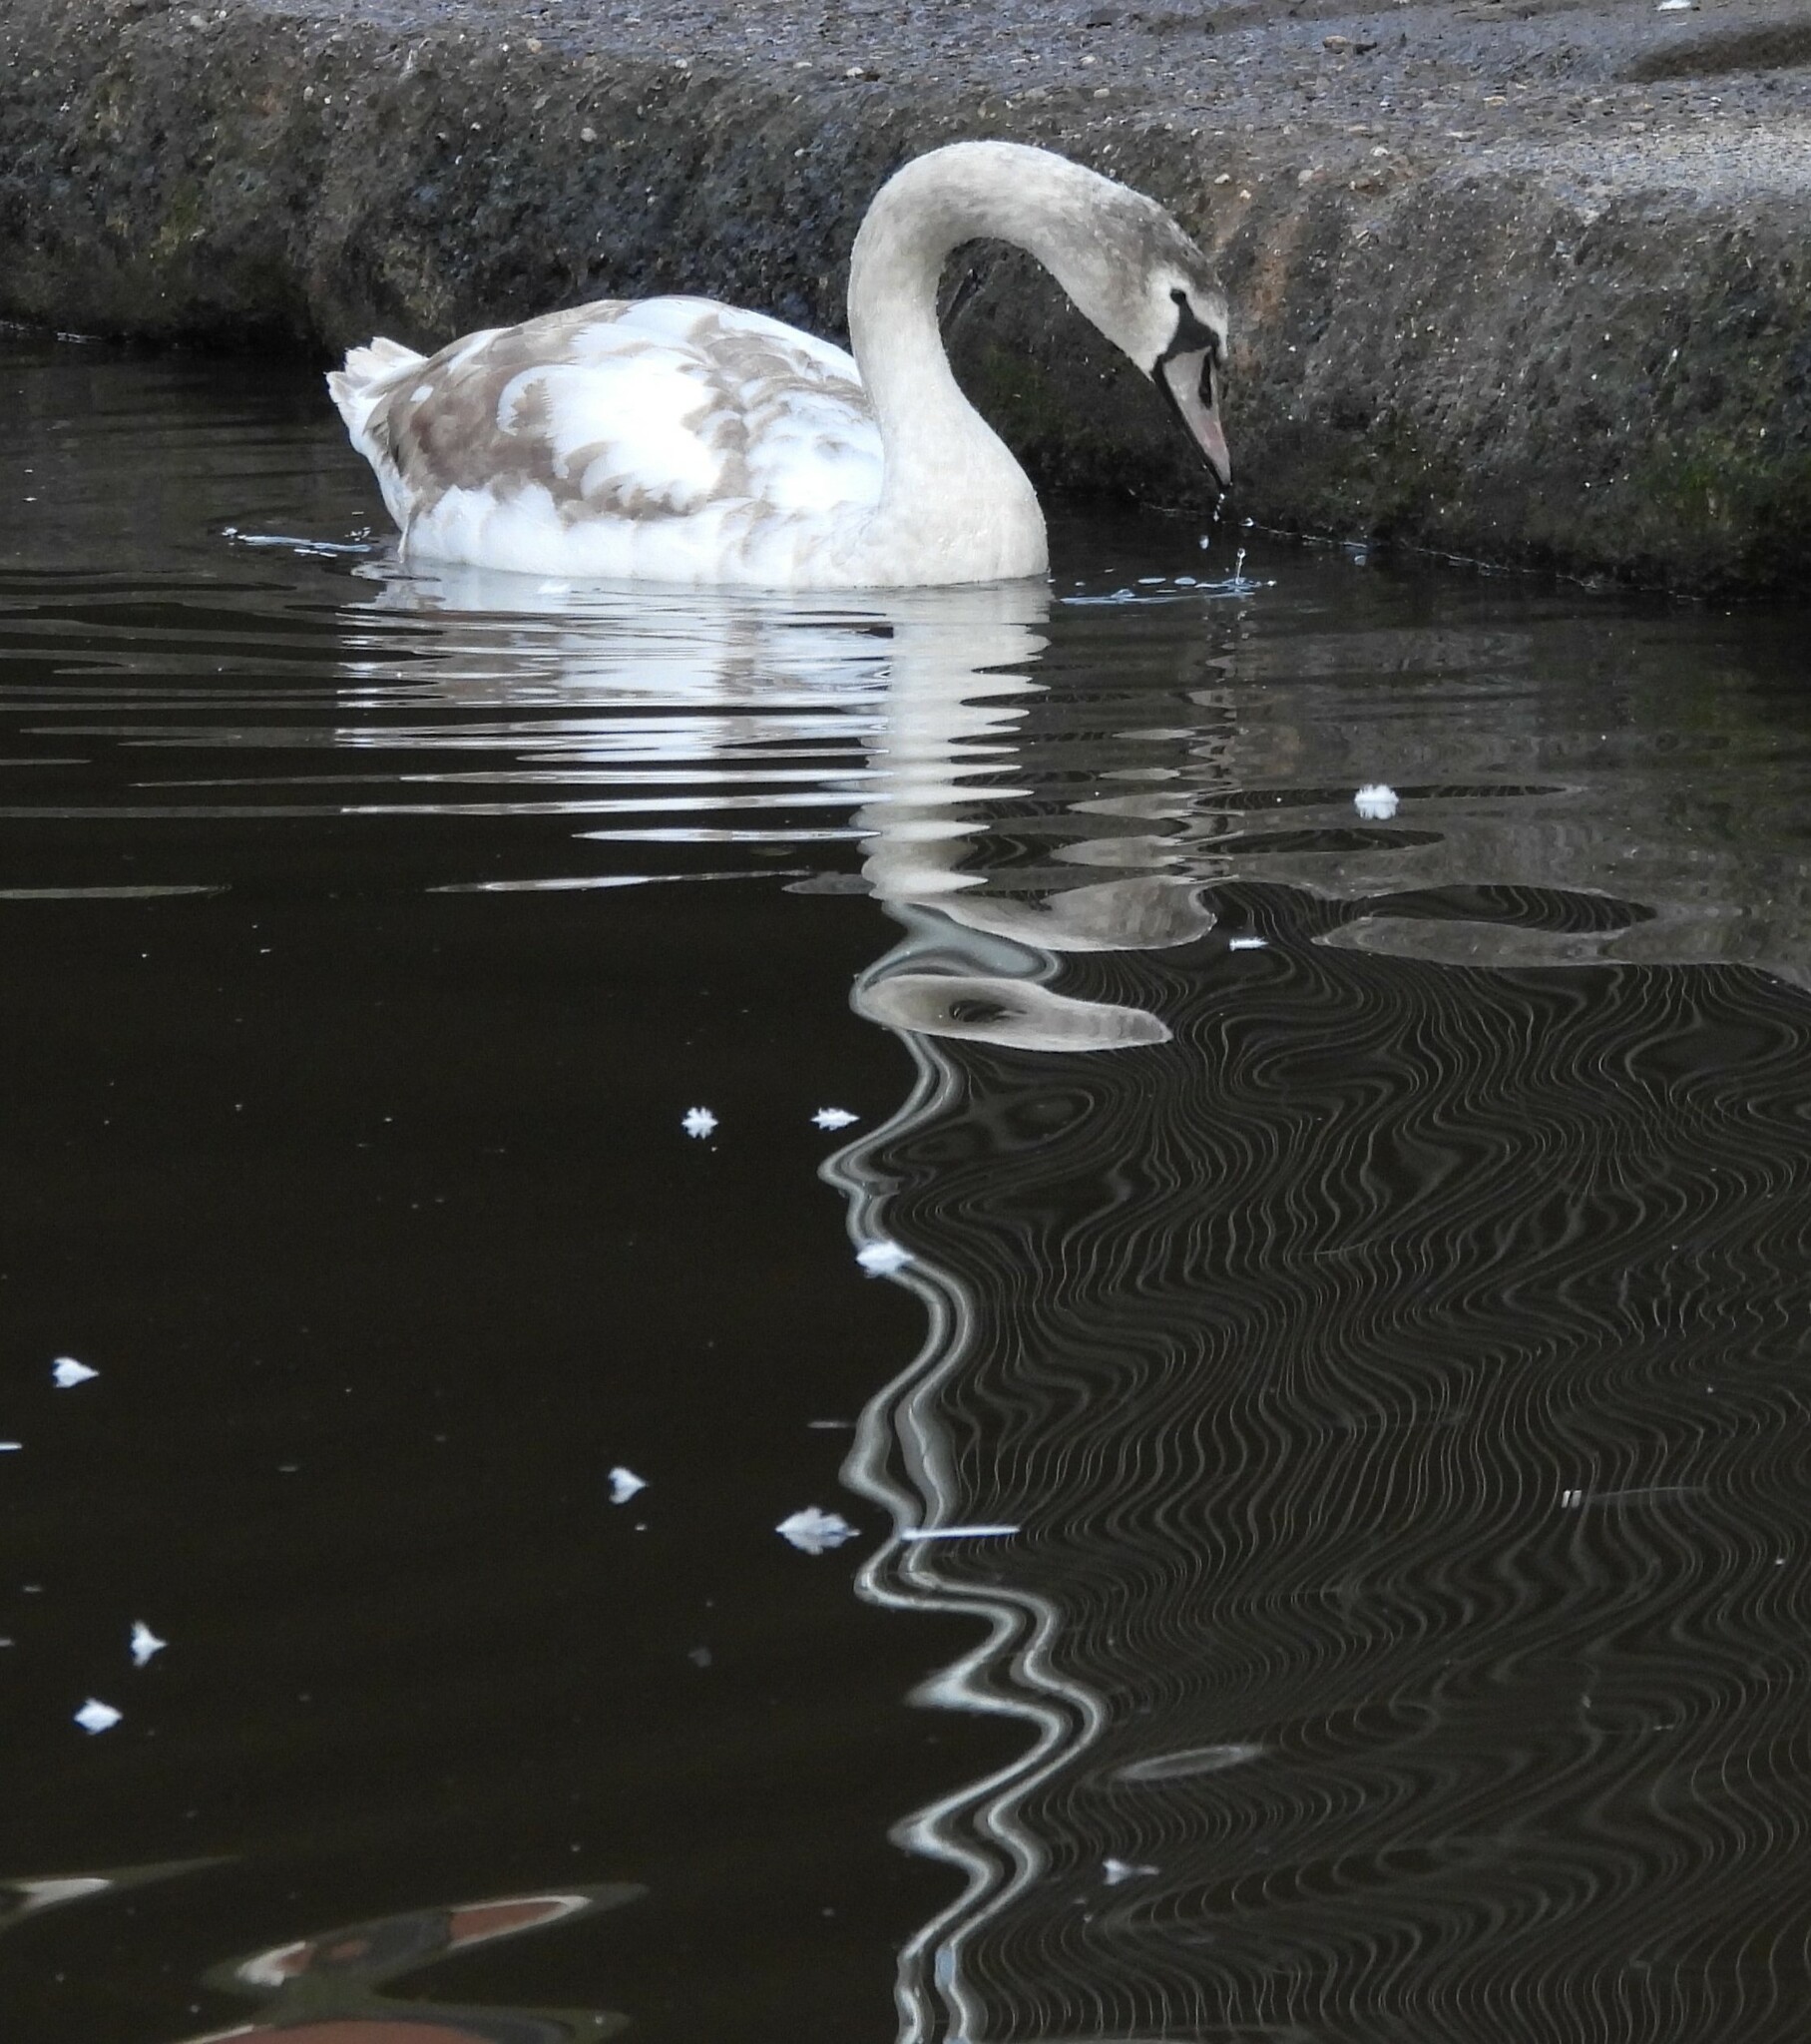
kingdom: Animalia
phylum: Chordata
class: Aves
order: Anseriformes
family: Anatidae
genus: Cygnus
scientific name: Cygnus olor
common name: Mute swan
